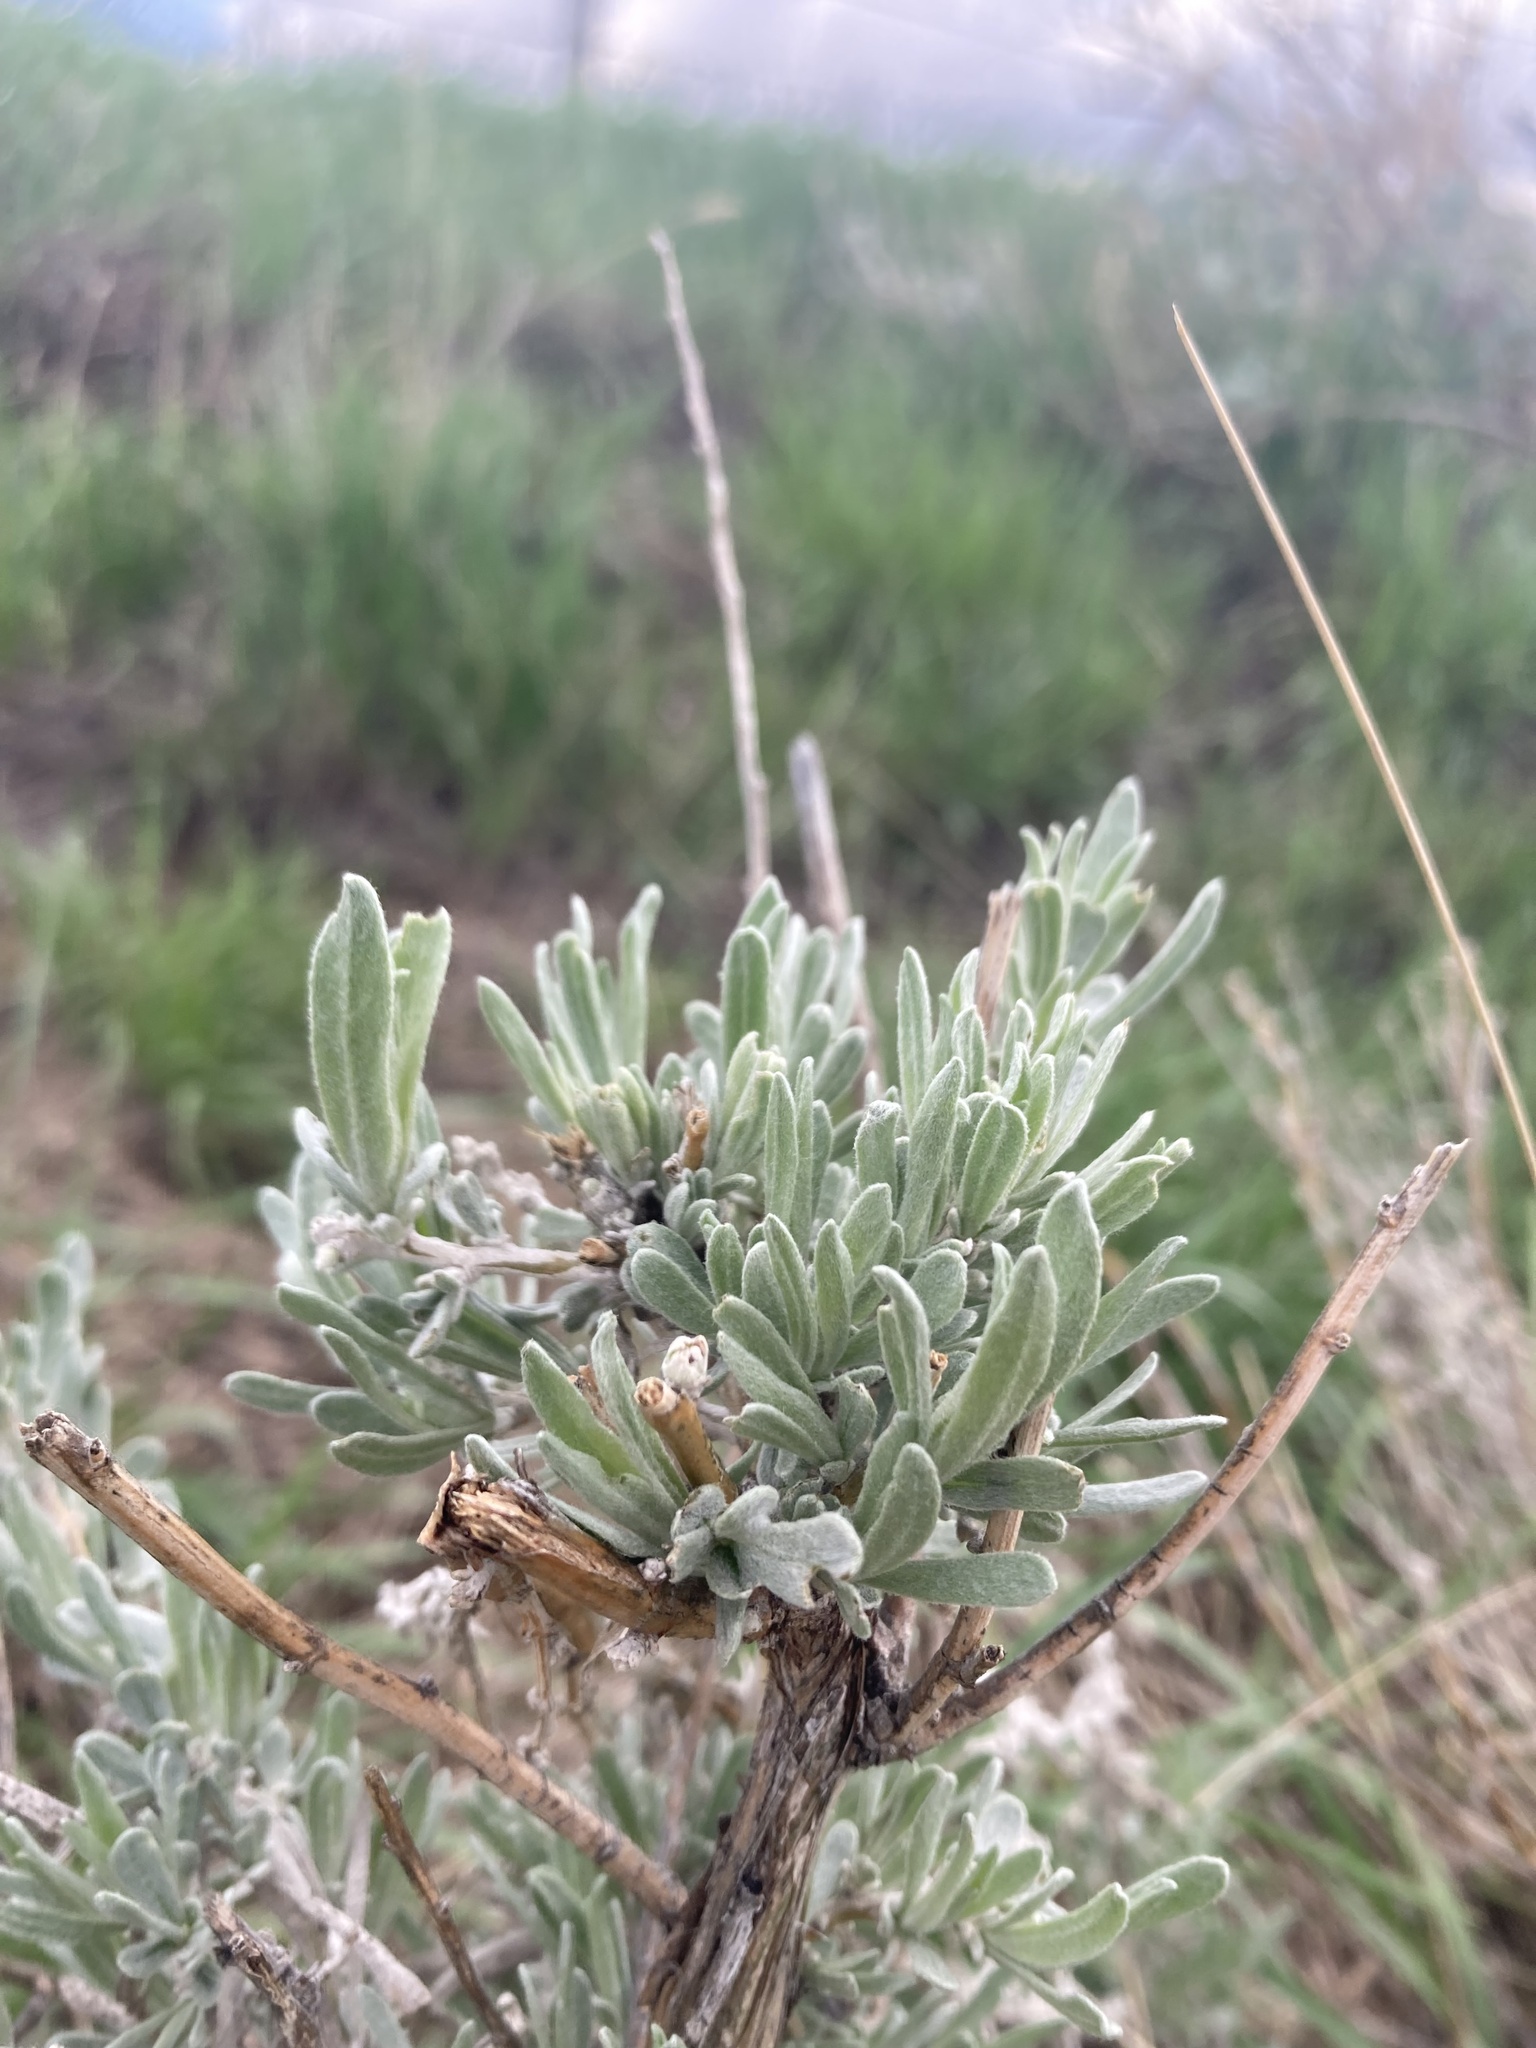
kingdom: Plantae
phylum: Tracheophyta
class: Magnoliopsida
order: Asterales
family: Asteraceae
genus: Artemisia
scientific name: Artemisia cana
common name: Silver sagebrush
